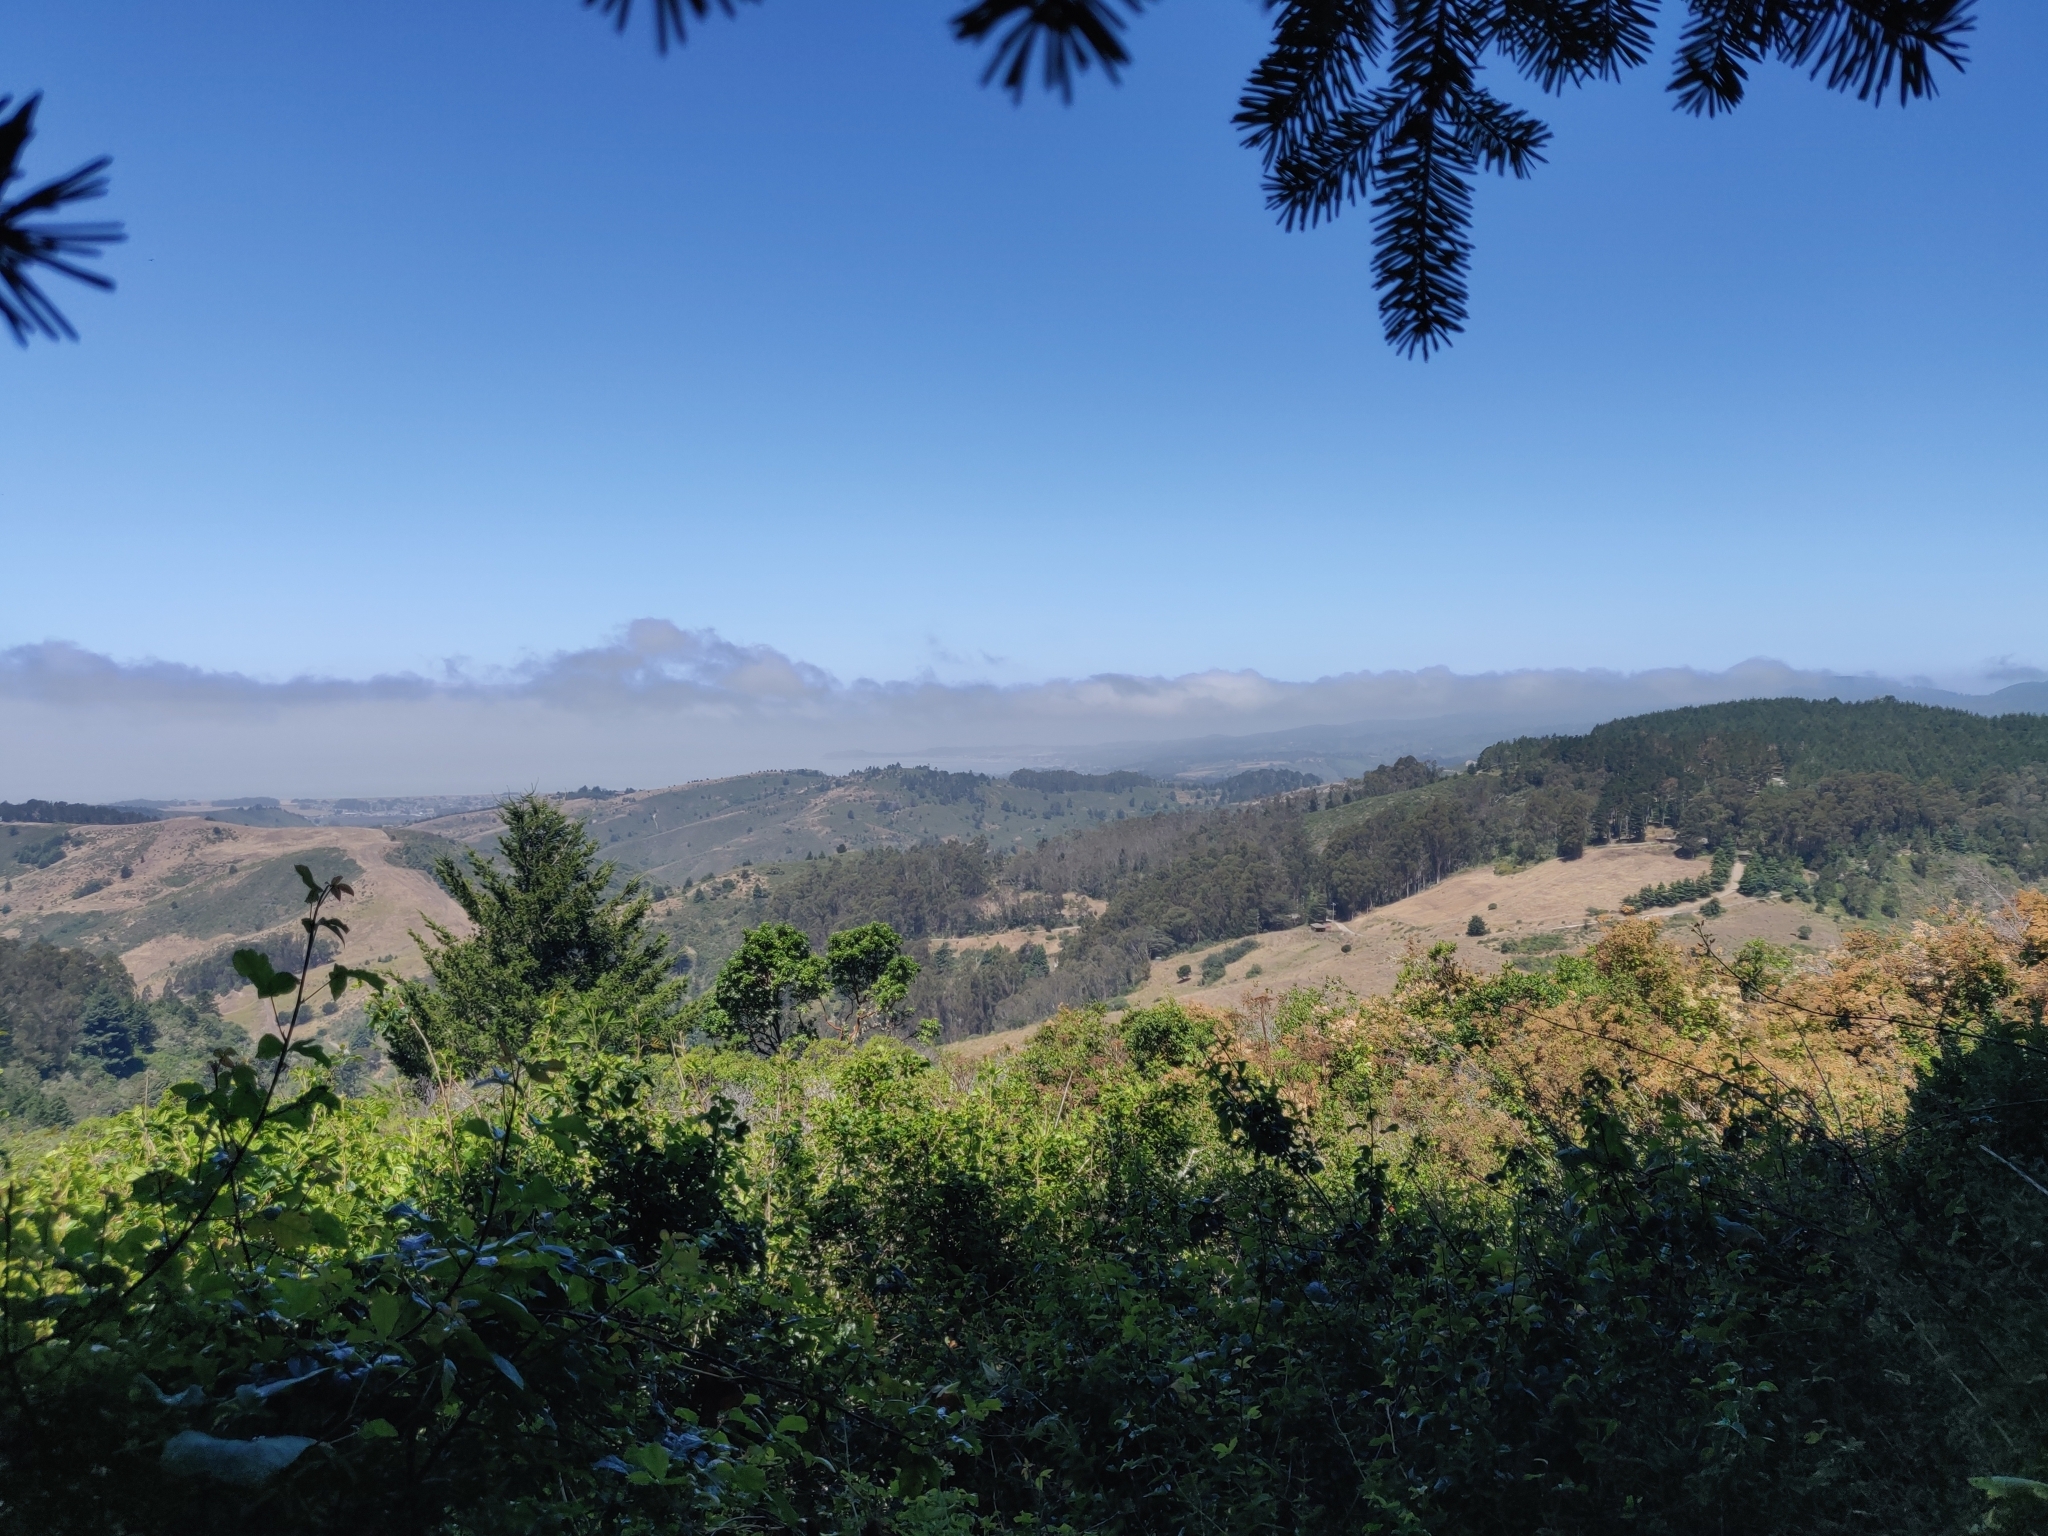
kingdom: Plantae
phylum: Tracheophyta
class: Magnoliopsida
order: Asterales
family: Asteraceae
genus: Cirsium
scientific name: Cirsium brevistylum
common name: Indian thistle
